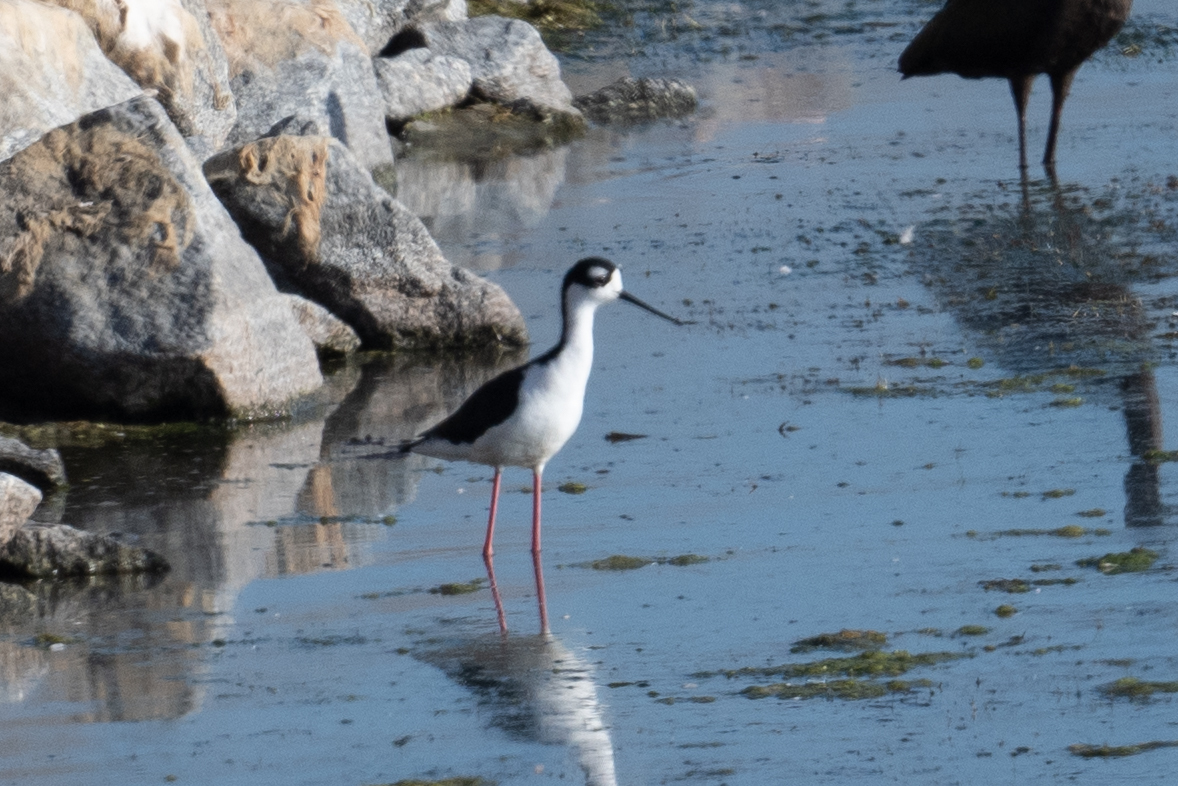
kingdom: Animalia
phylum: Chordata
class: Aves
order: Charadriiformes
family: Recurvirostridae
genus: Himantopus
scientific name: Himantopus mexicanus
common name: Black-necked stilt
